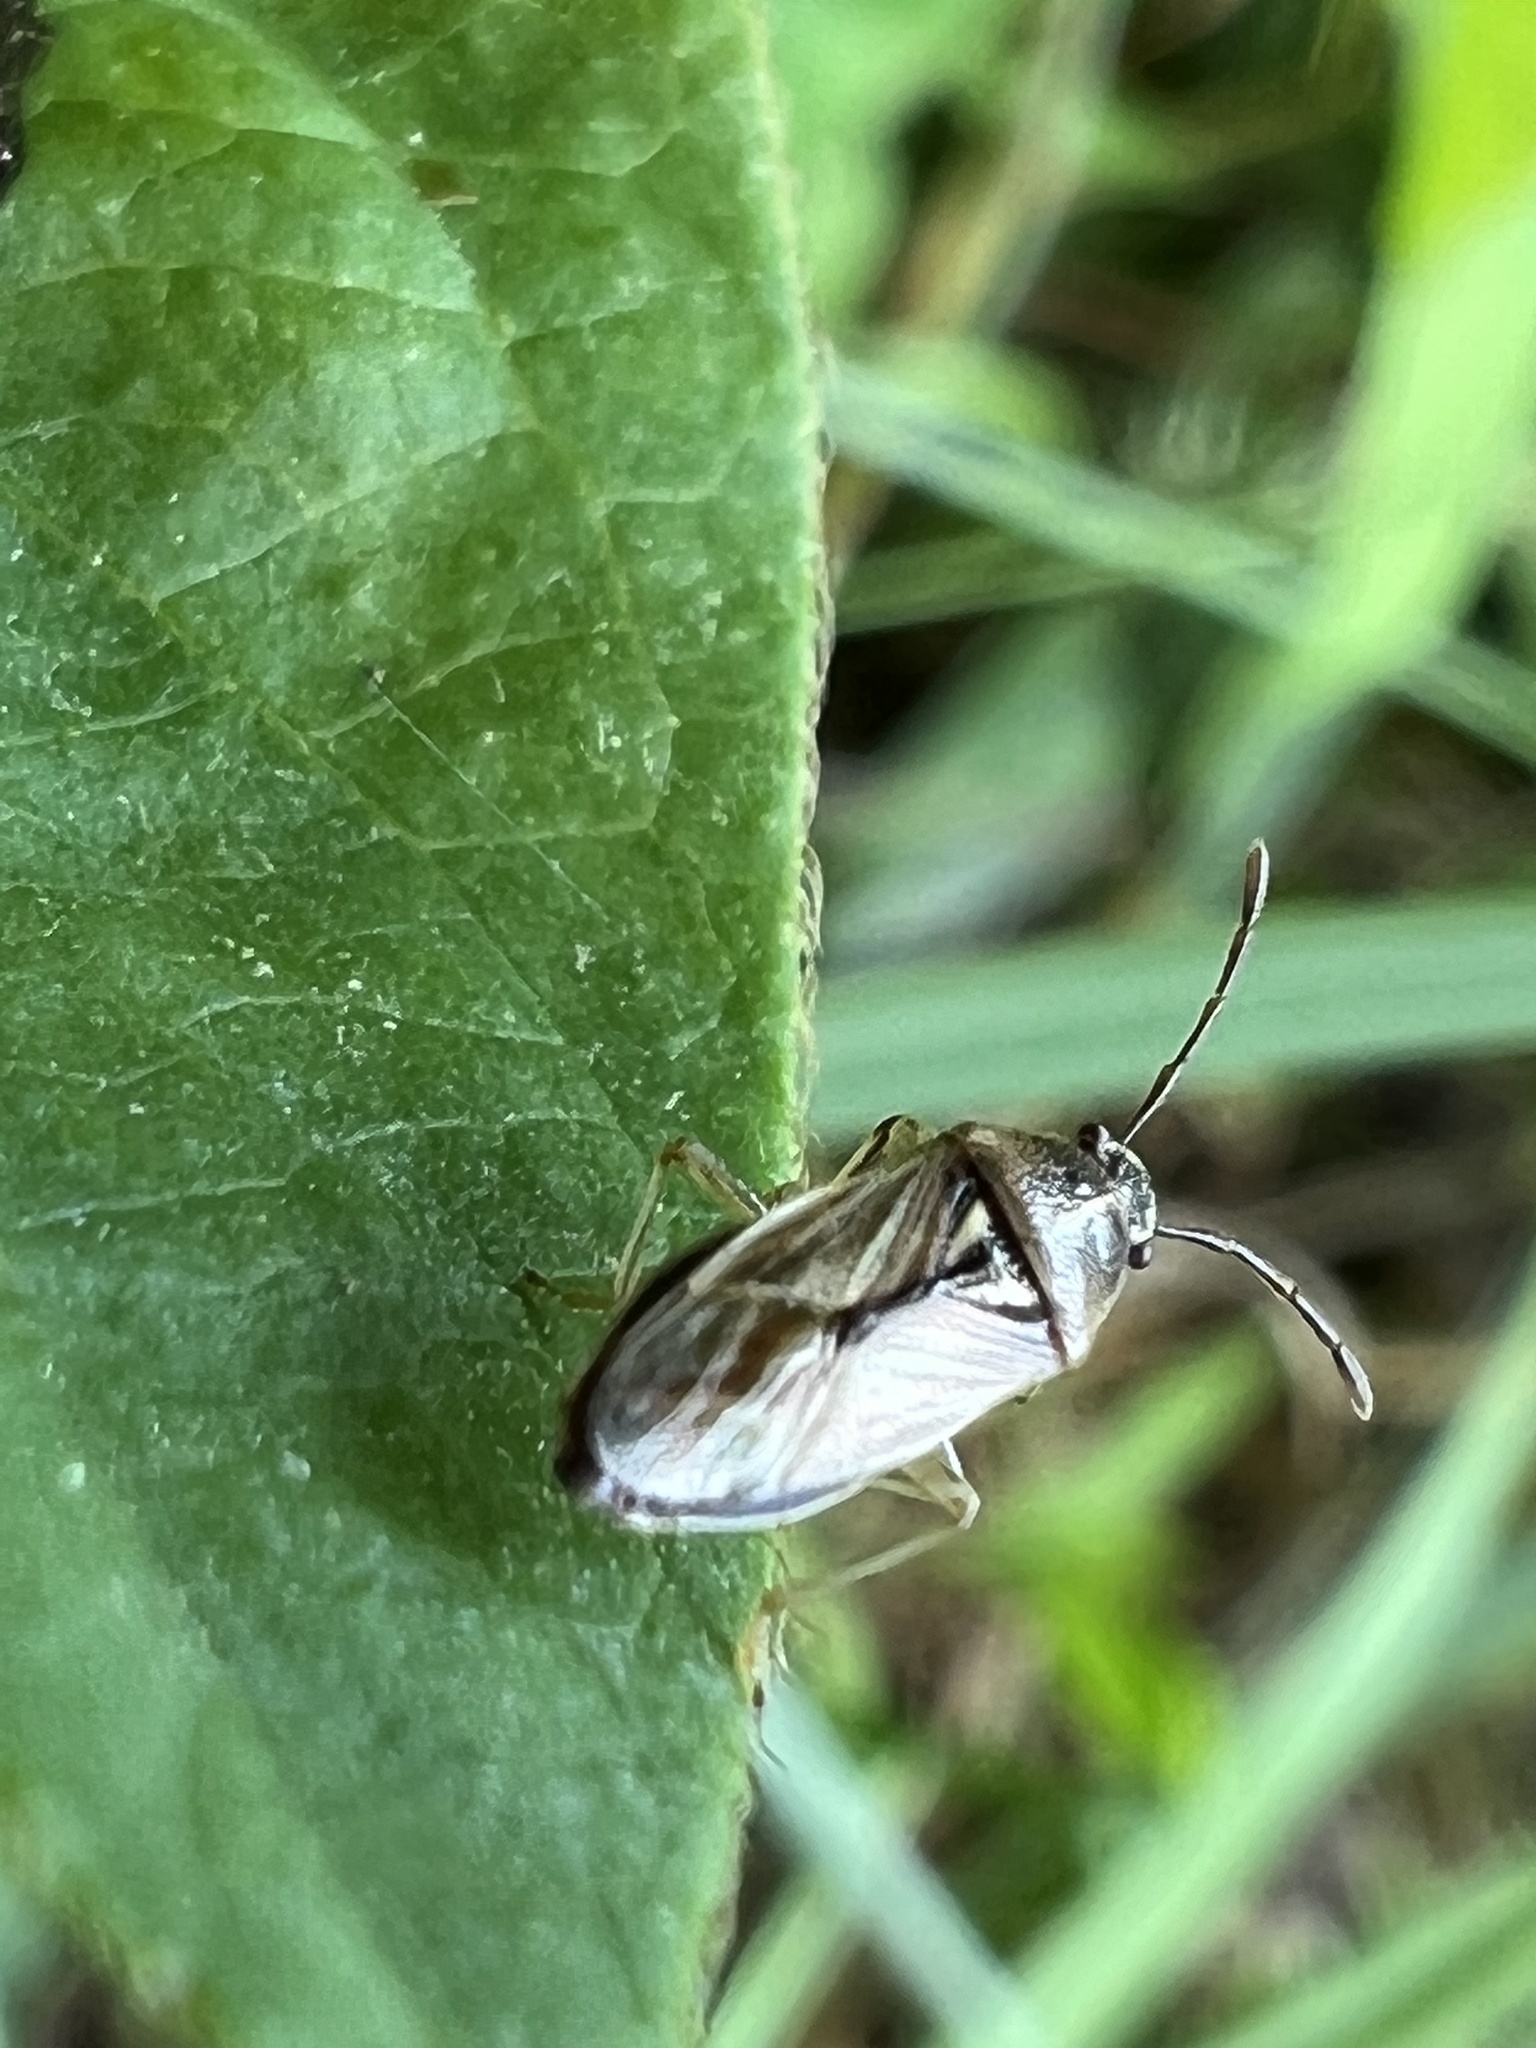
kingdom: Animalia
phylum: Arthropoda
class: Insecta
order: Hemiptera
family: Pachygronthidae
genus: Oedancala
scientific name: Oedancala dorsalis
